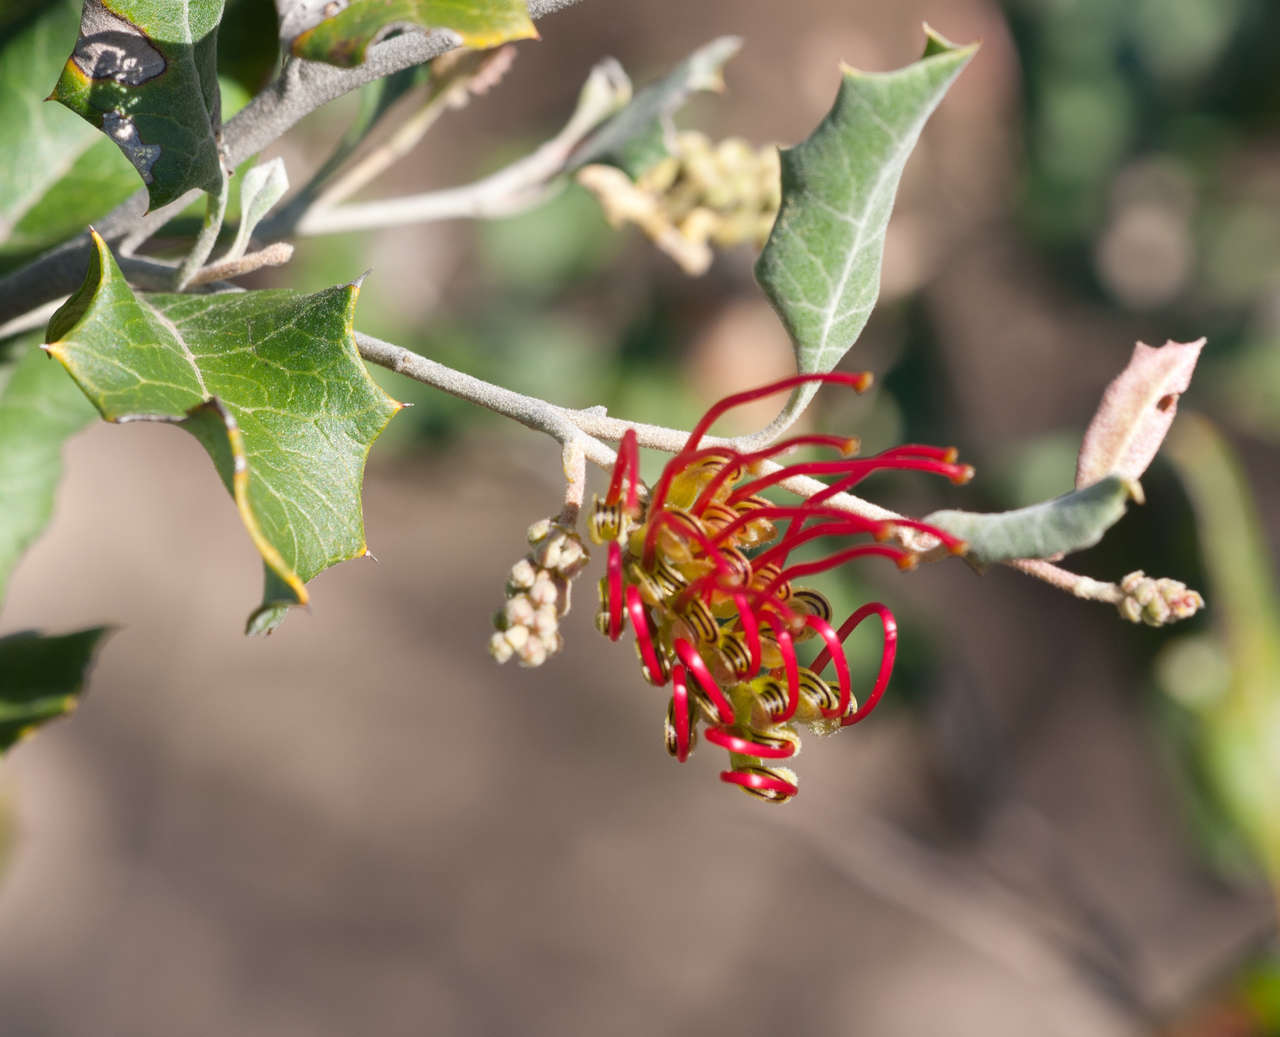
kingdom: Plantae
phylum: Tracheophyta
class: Magnoliopsida
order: Proteales
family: Proteaceae
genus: Grevillea
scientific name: Grevillea aquifolium
